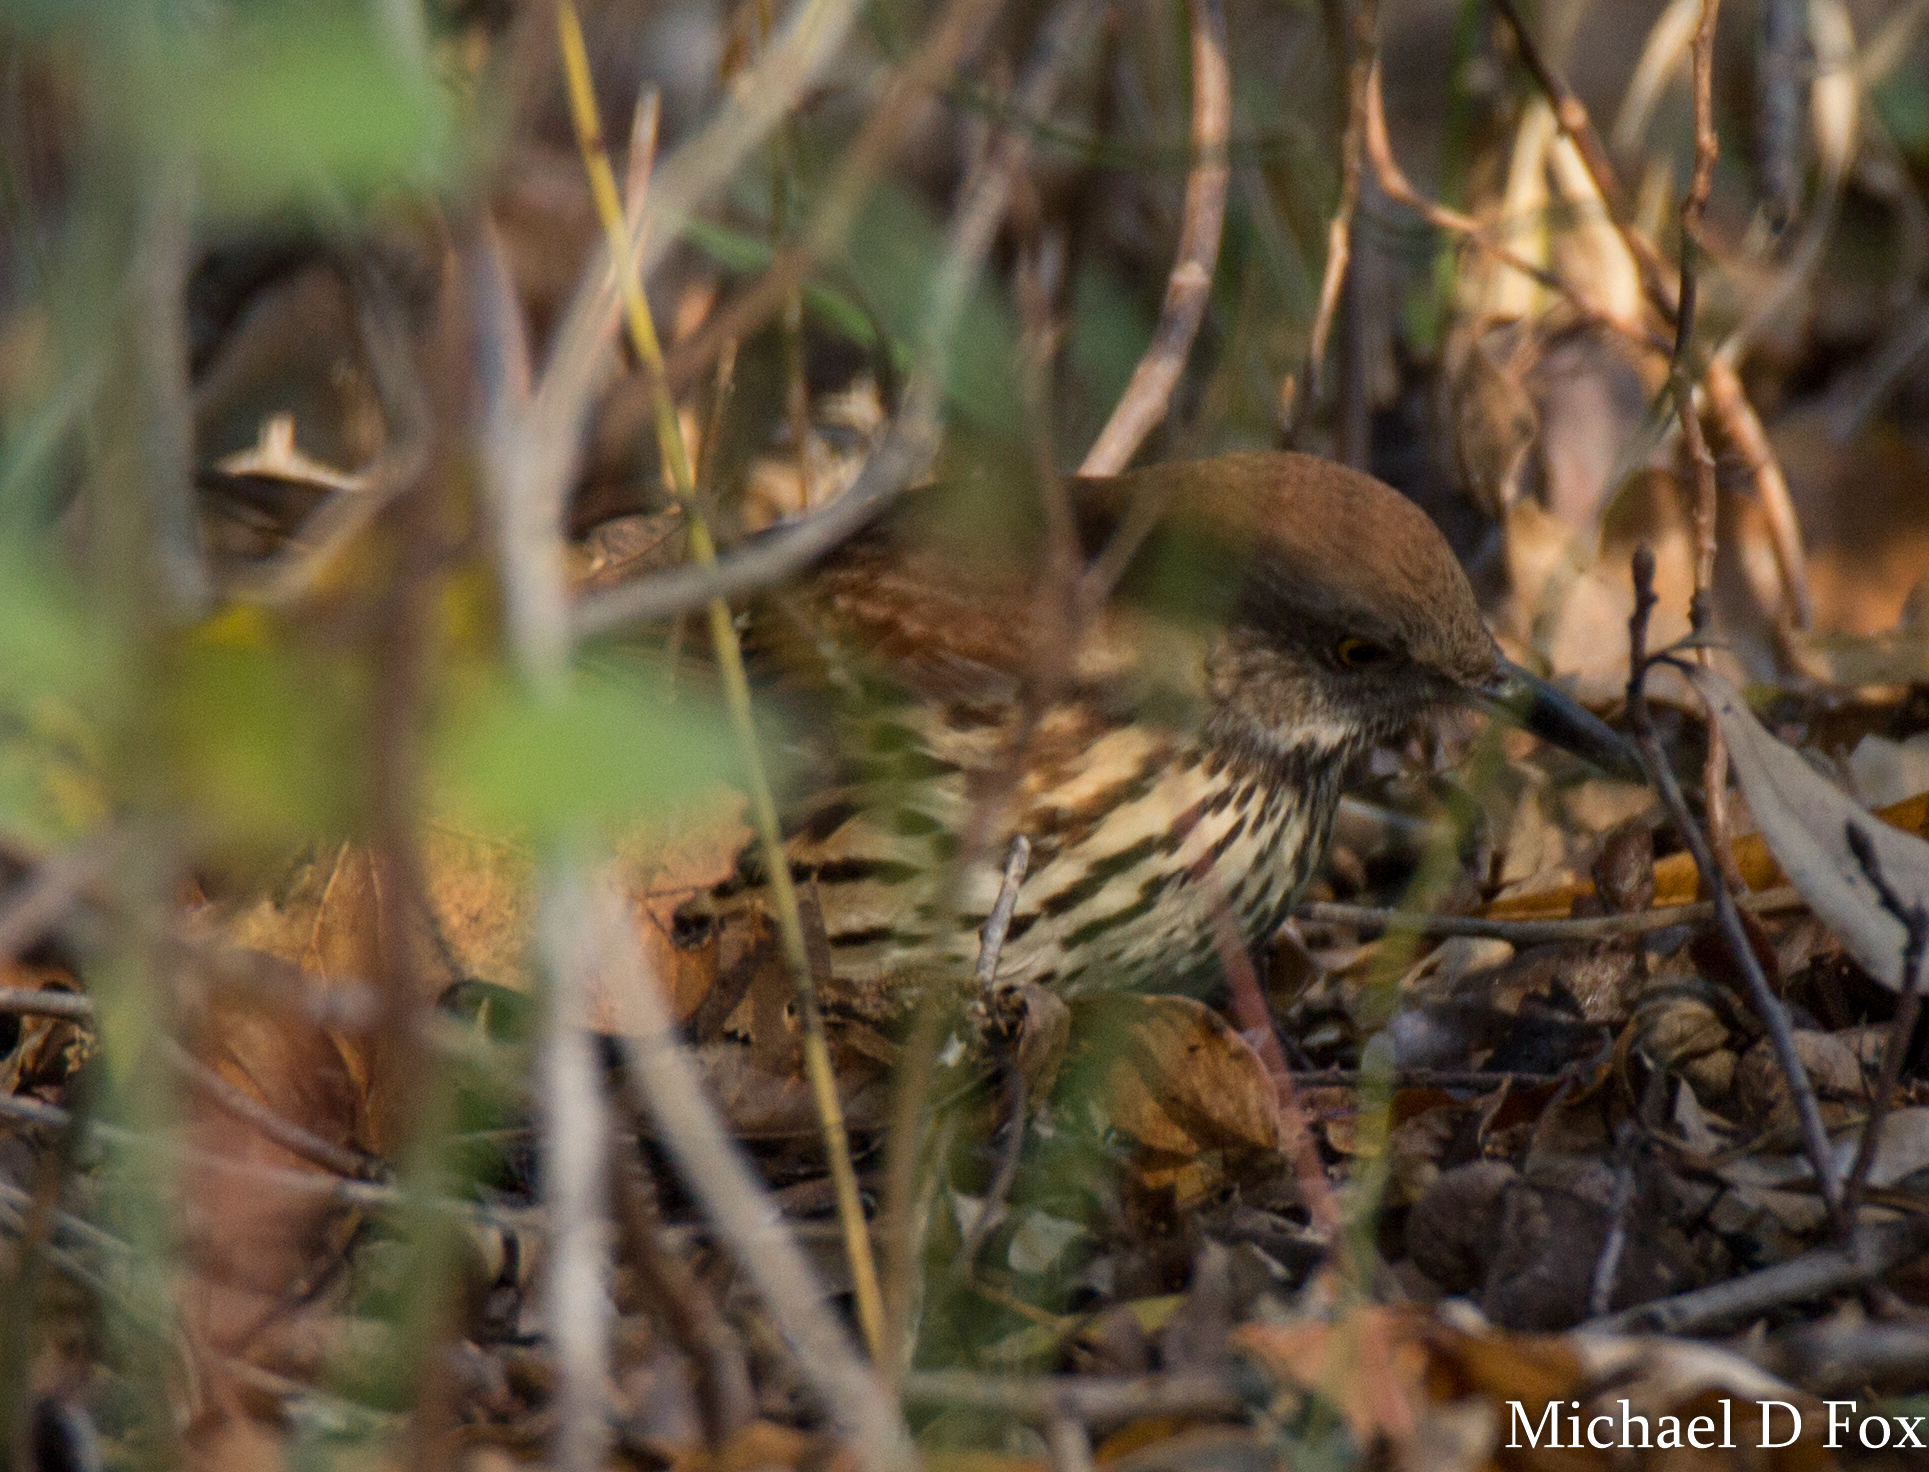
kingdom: Animalia
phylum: Chordata
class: Aves
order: Passeriformes
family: Mimidae
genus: Toxostoma
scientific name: Toxostoma rufum
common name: Brown thrasher
